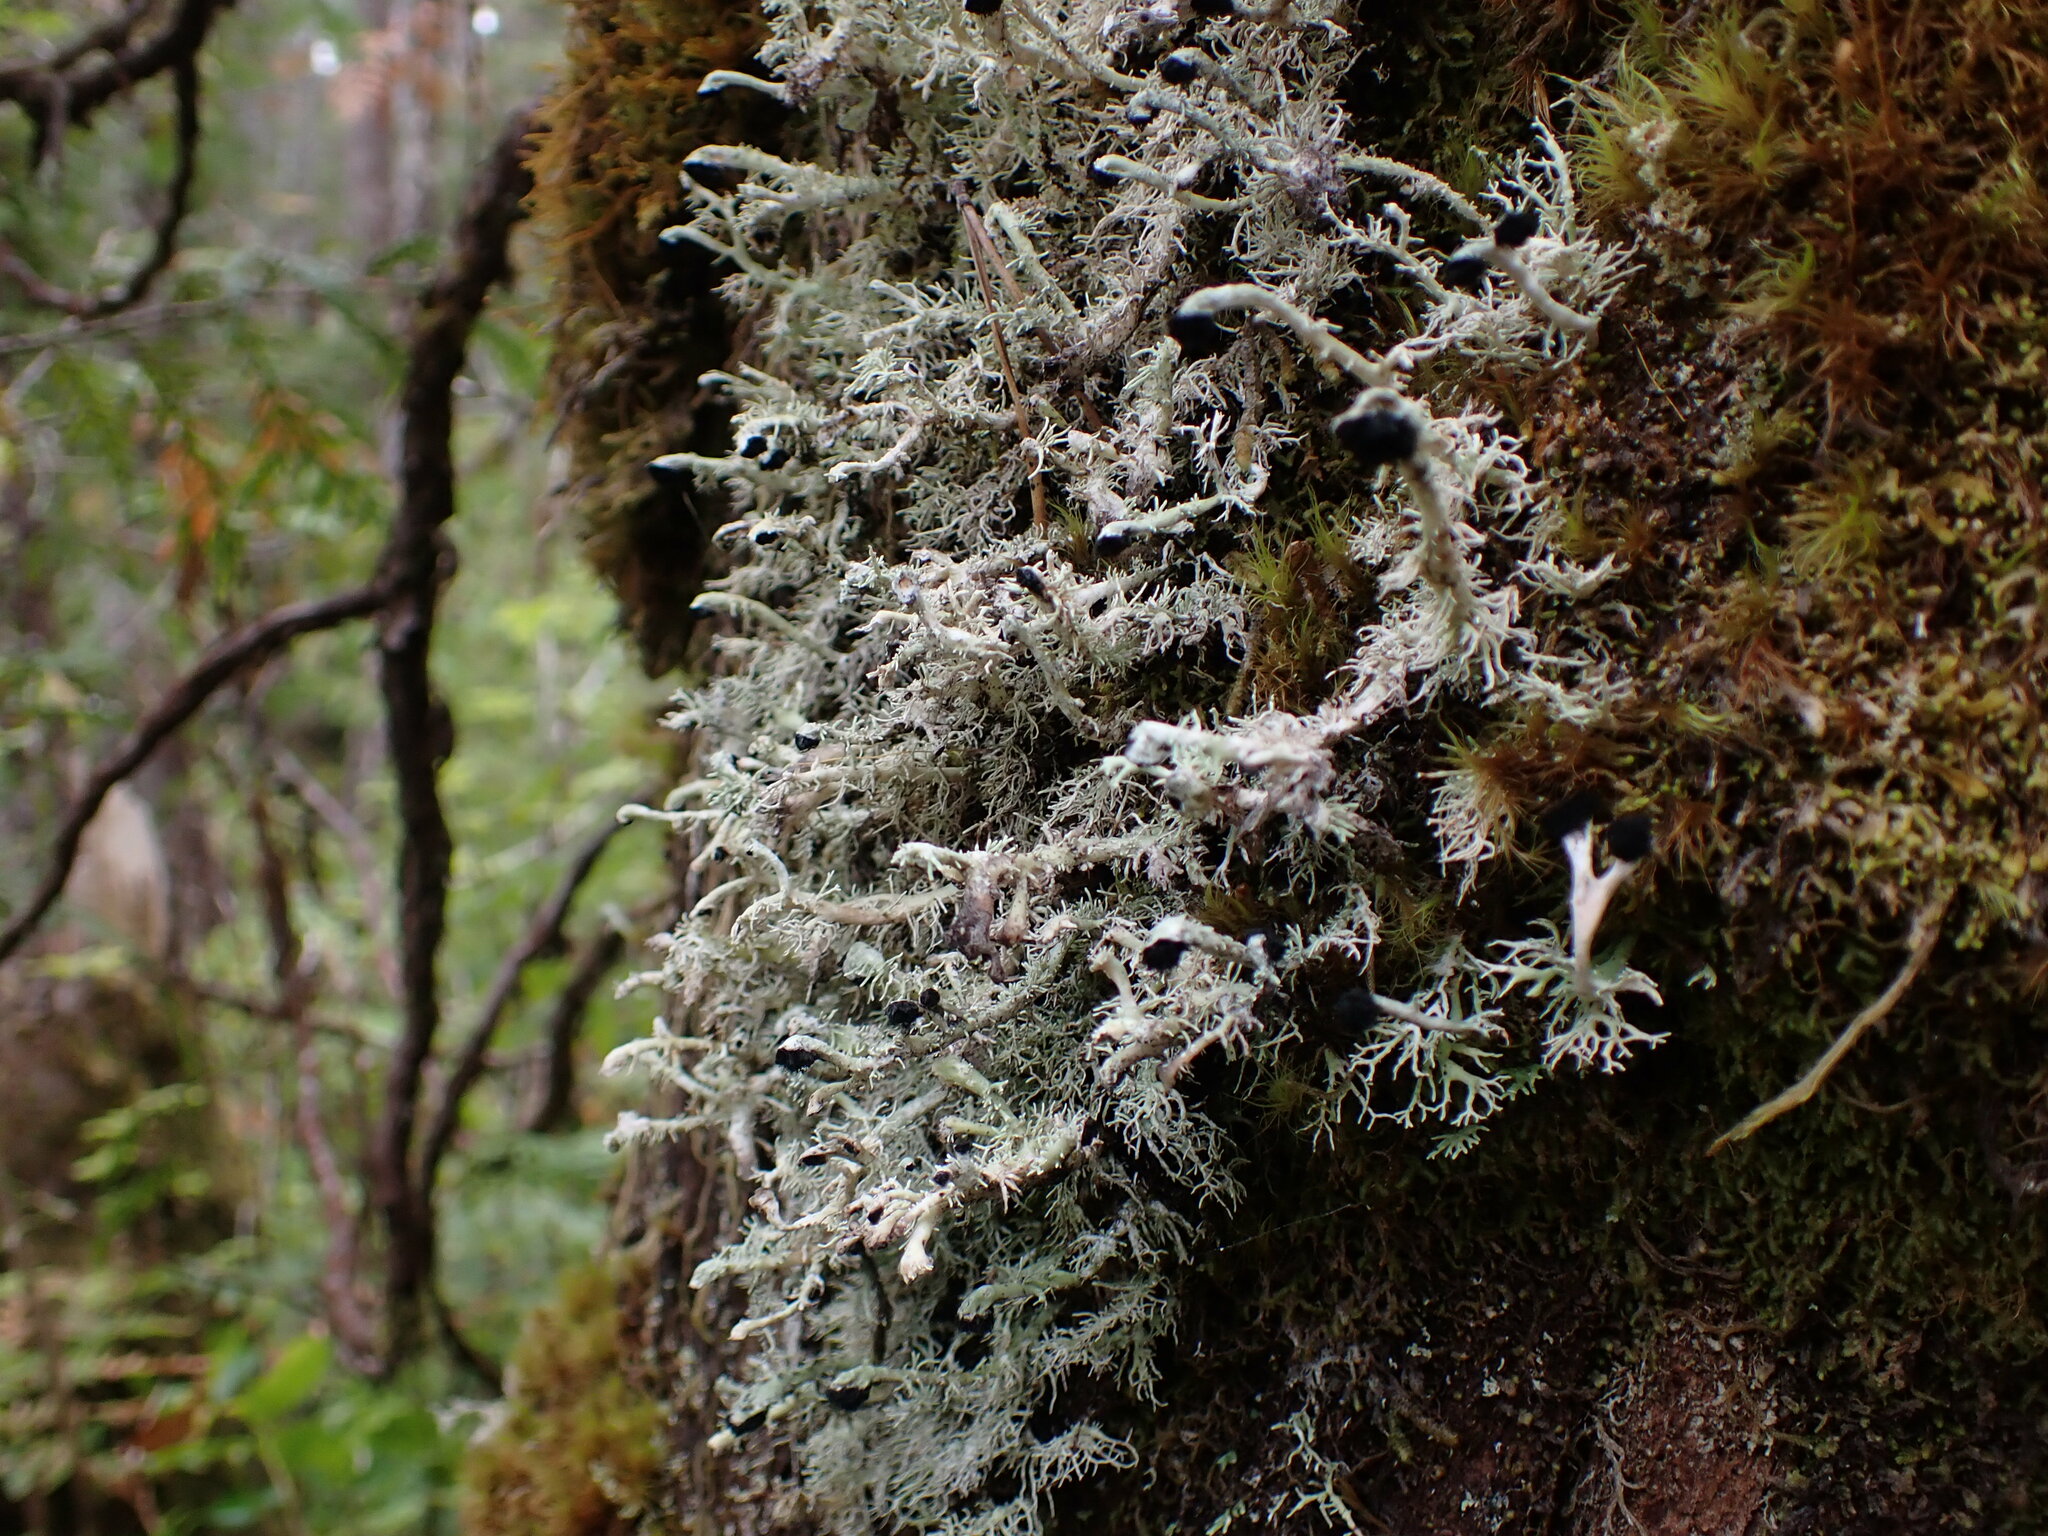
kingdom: Fungi
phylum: Ascomycota
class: Lecanoromycetes
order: Lecanorales
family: Sphaerophoraceae
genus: Bunodophoron
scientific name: Bunodophoron melanocarpum
